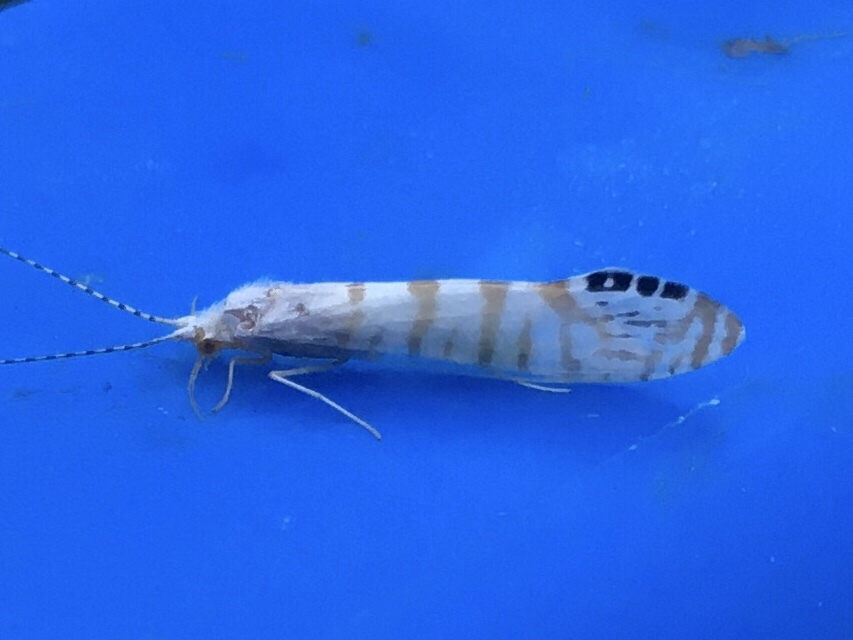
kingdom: Animalia
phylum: Arthropoda
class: Insecta
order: Trichoptera
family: Leptoceridae
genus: Nectopsyche
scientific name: Nectopsyche exquisita
